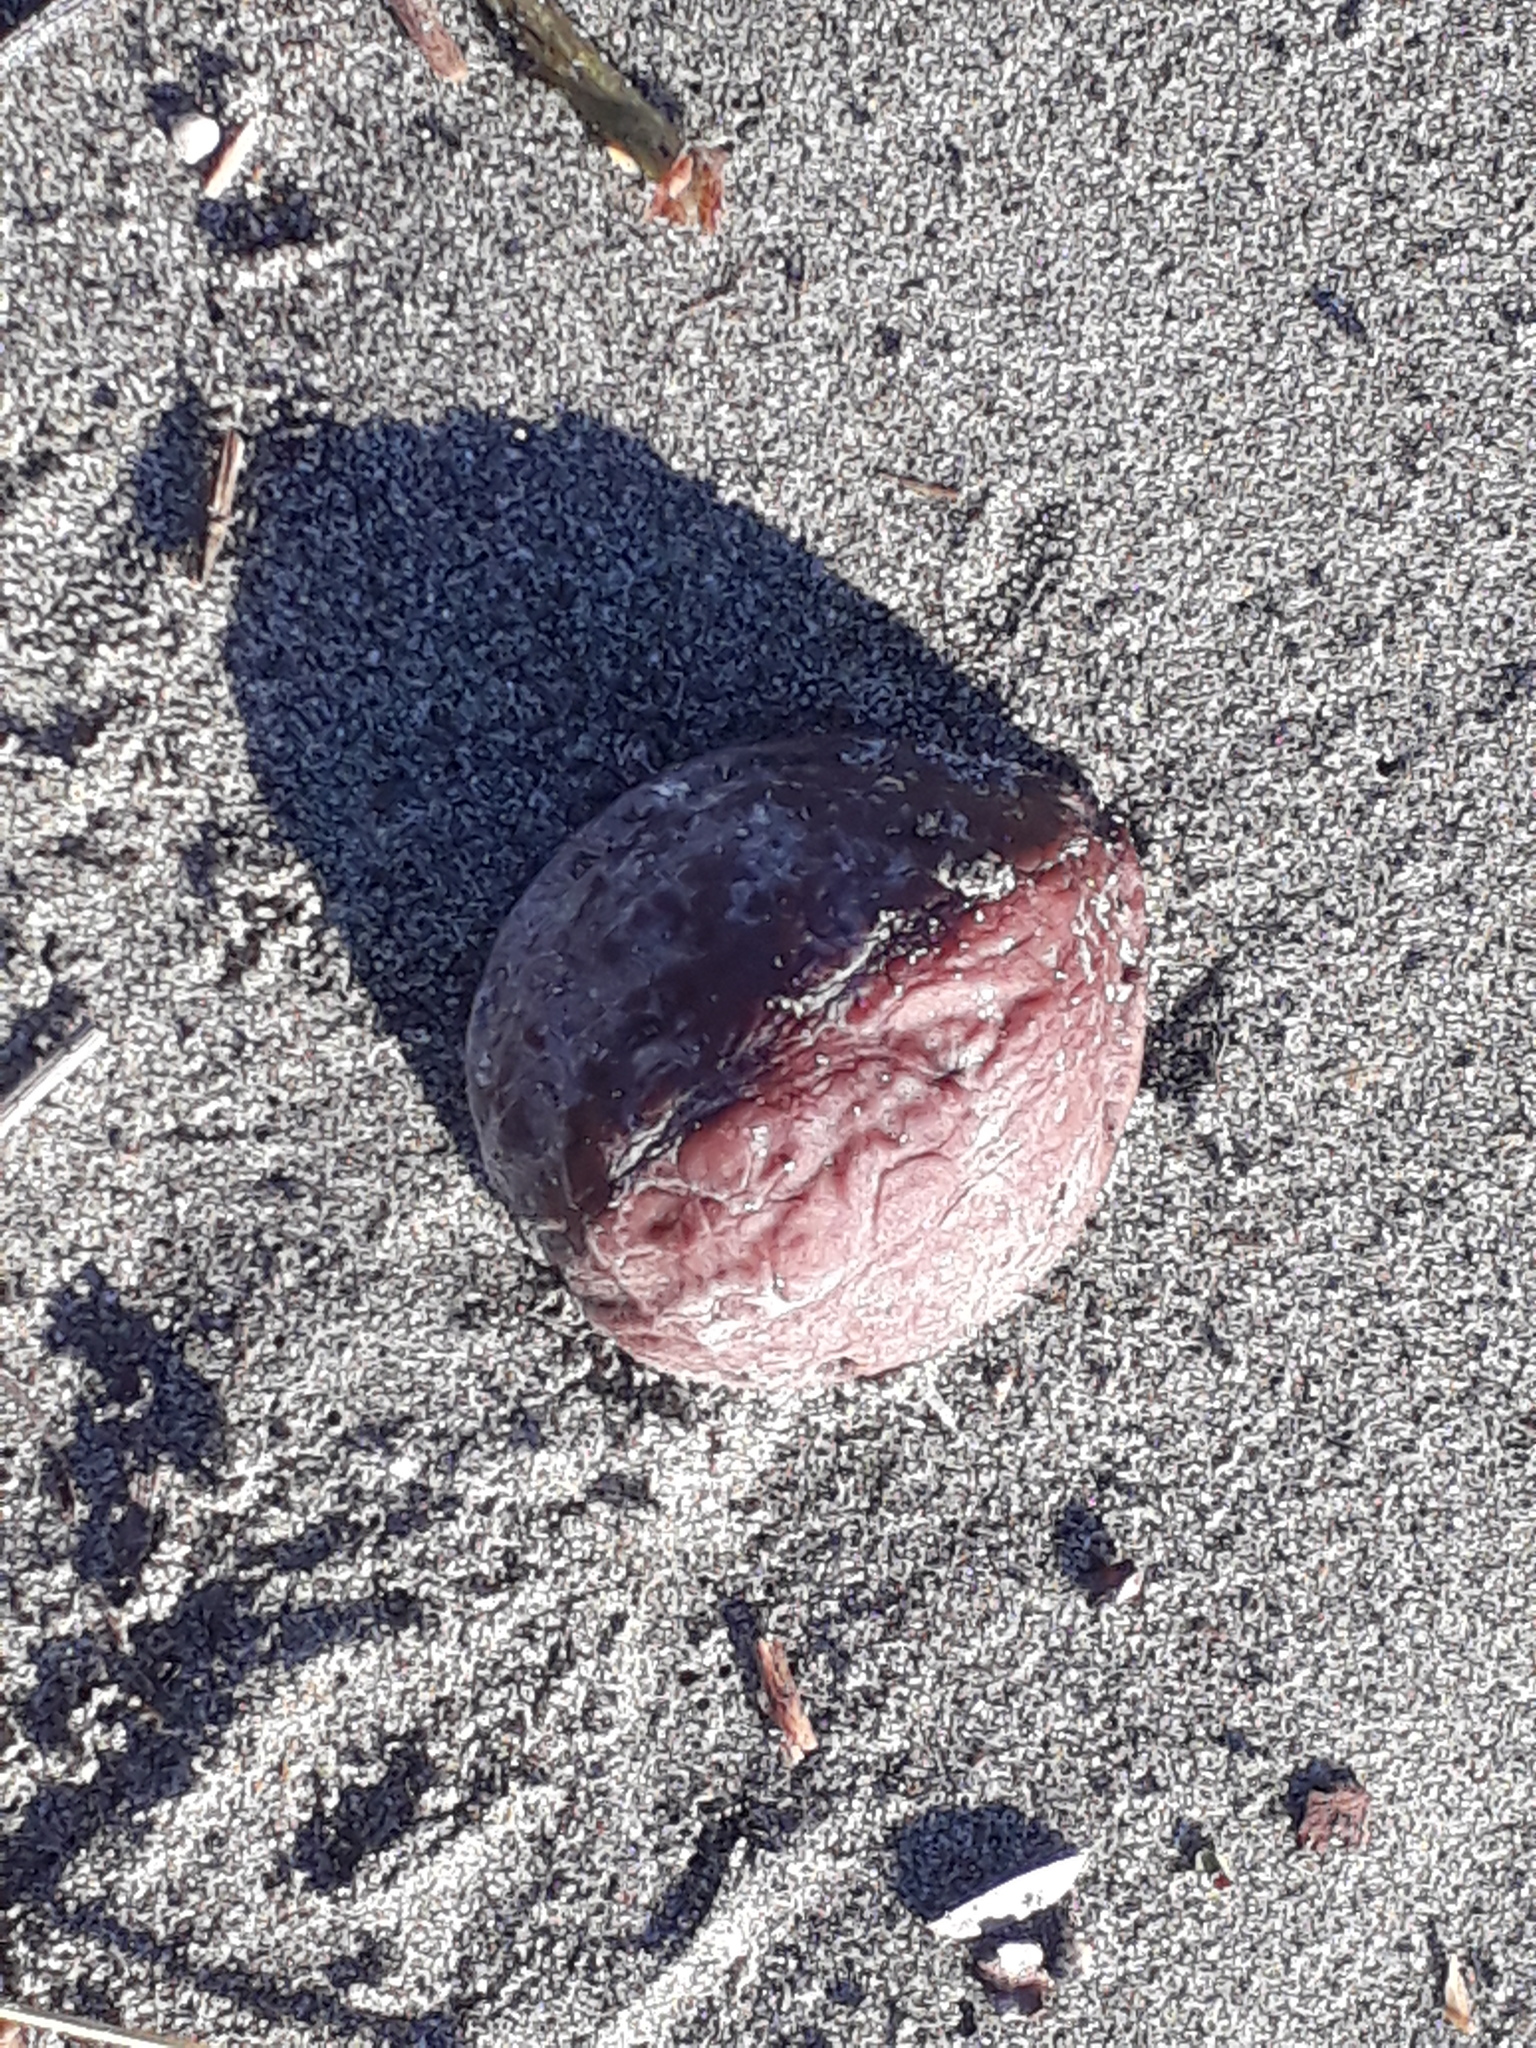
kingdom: Plantae
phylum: Tracheophyta
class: Magnoliopsida
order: Fagales
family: Juglandaceae
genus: Juglans
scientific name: Juglans regia
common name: Walnut
